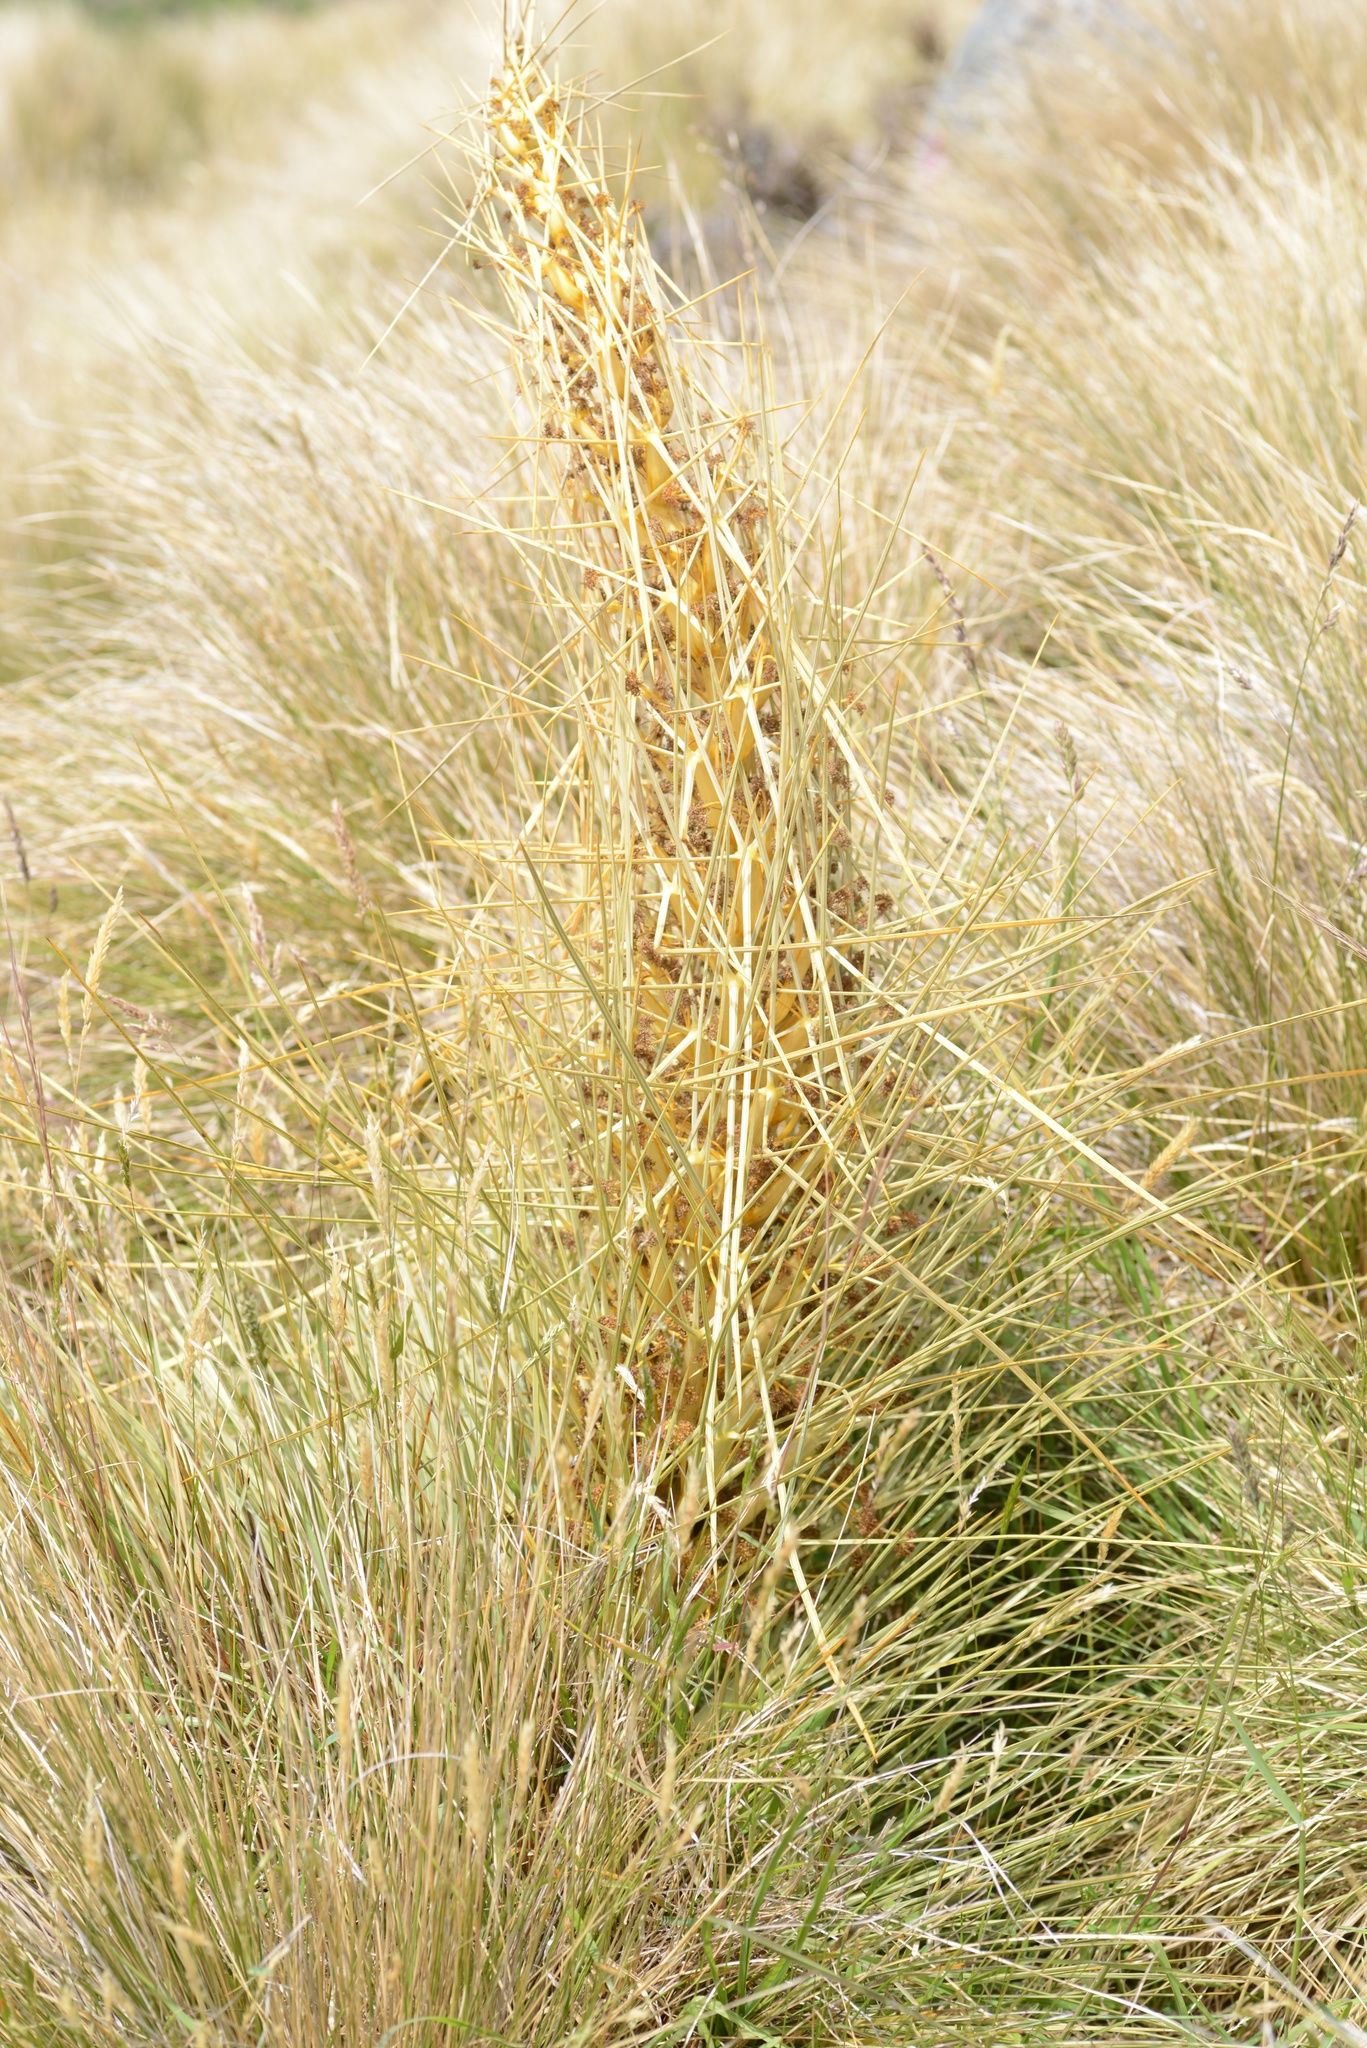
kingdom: Plantae
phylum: Tracheophyta
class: Magnoliopsida
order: Apiales
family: Apiaceae
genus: Aciphylla
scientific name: Aciphylla subflabellata
